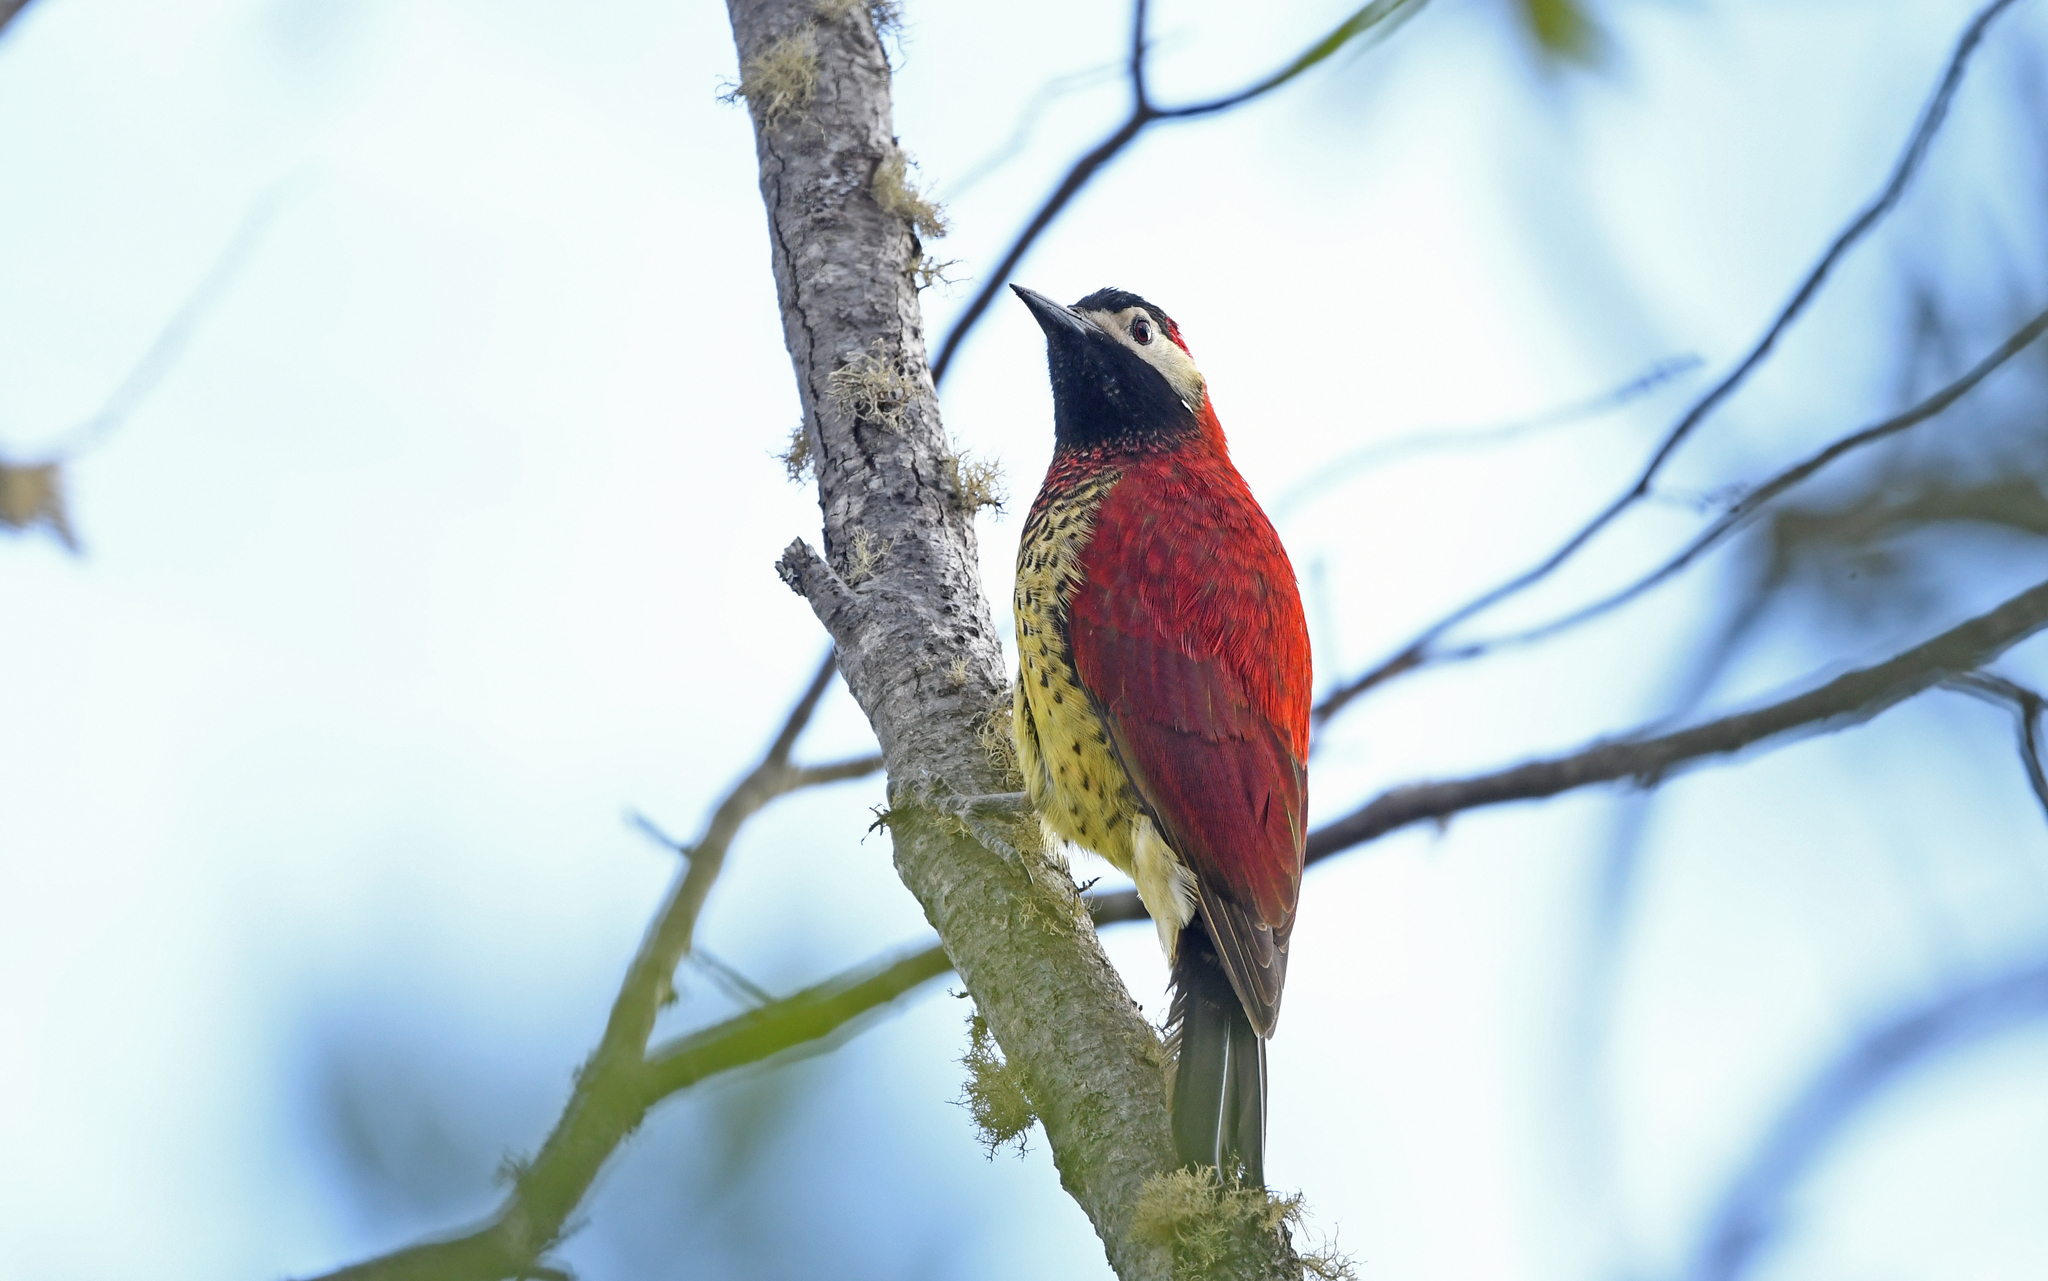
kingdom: Animalia
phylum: Chordata
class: Aves
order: Piciformes
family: Picidae
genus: Colaptes
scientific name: Colaptes rivolii
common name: Crimson-mantled woodpecker
